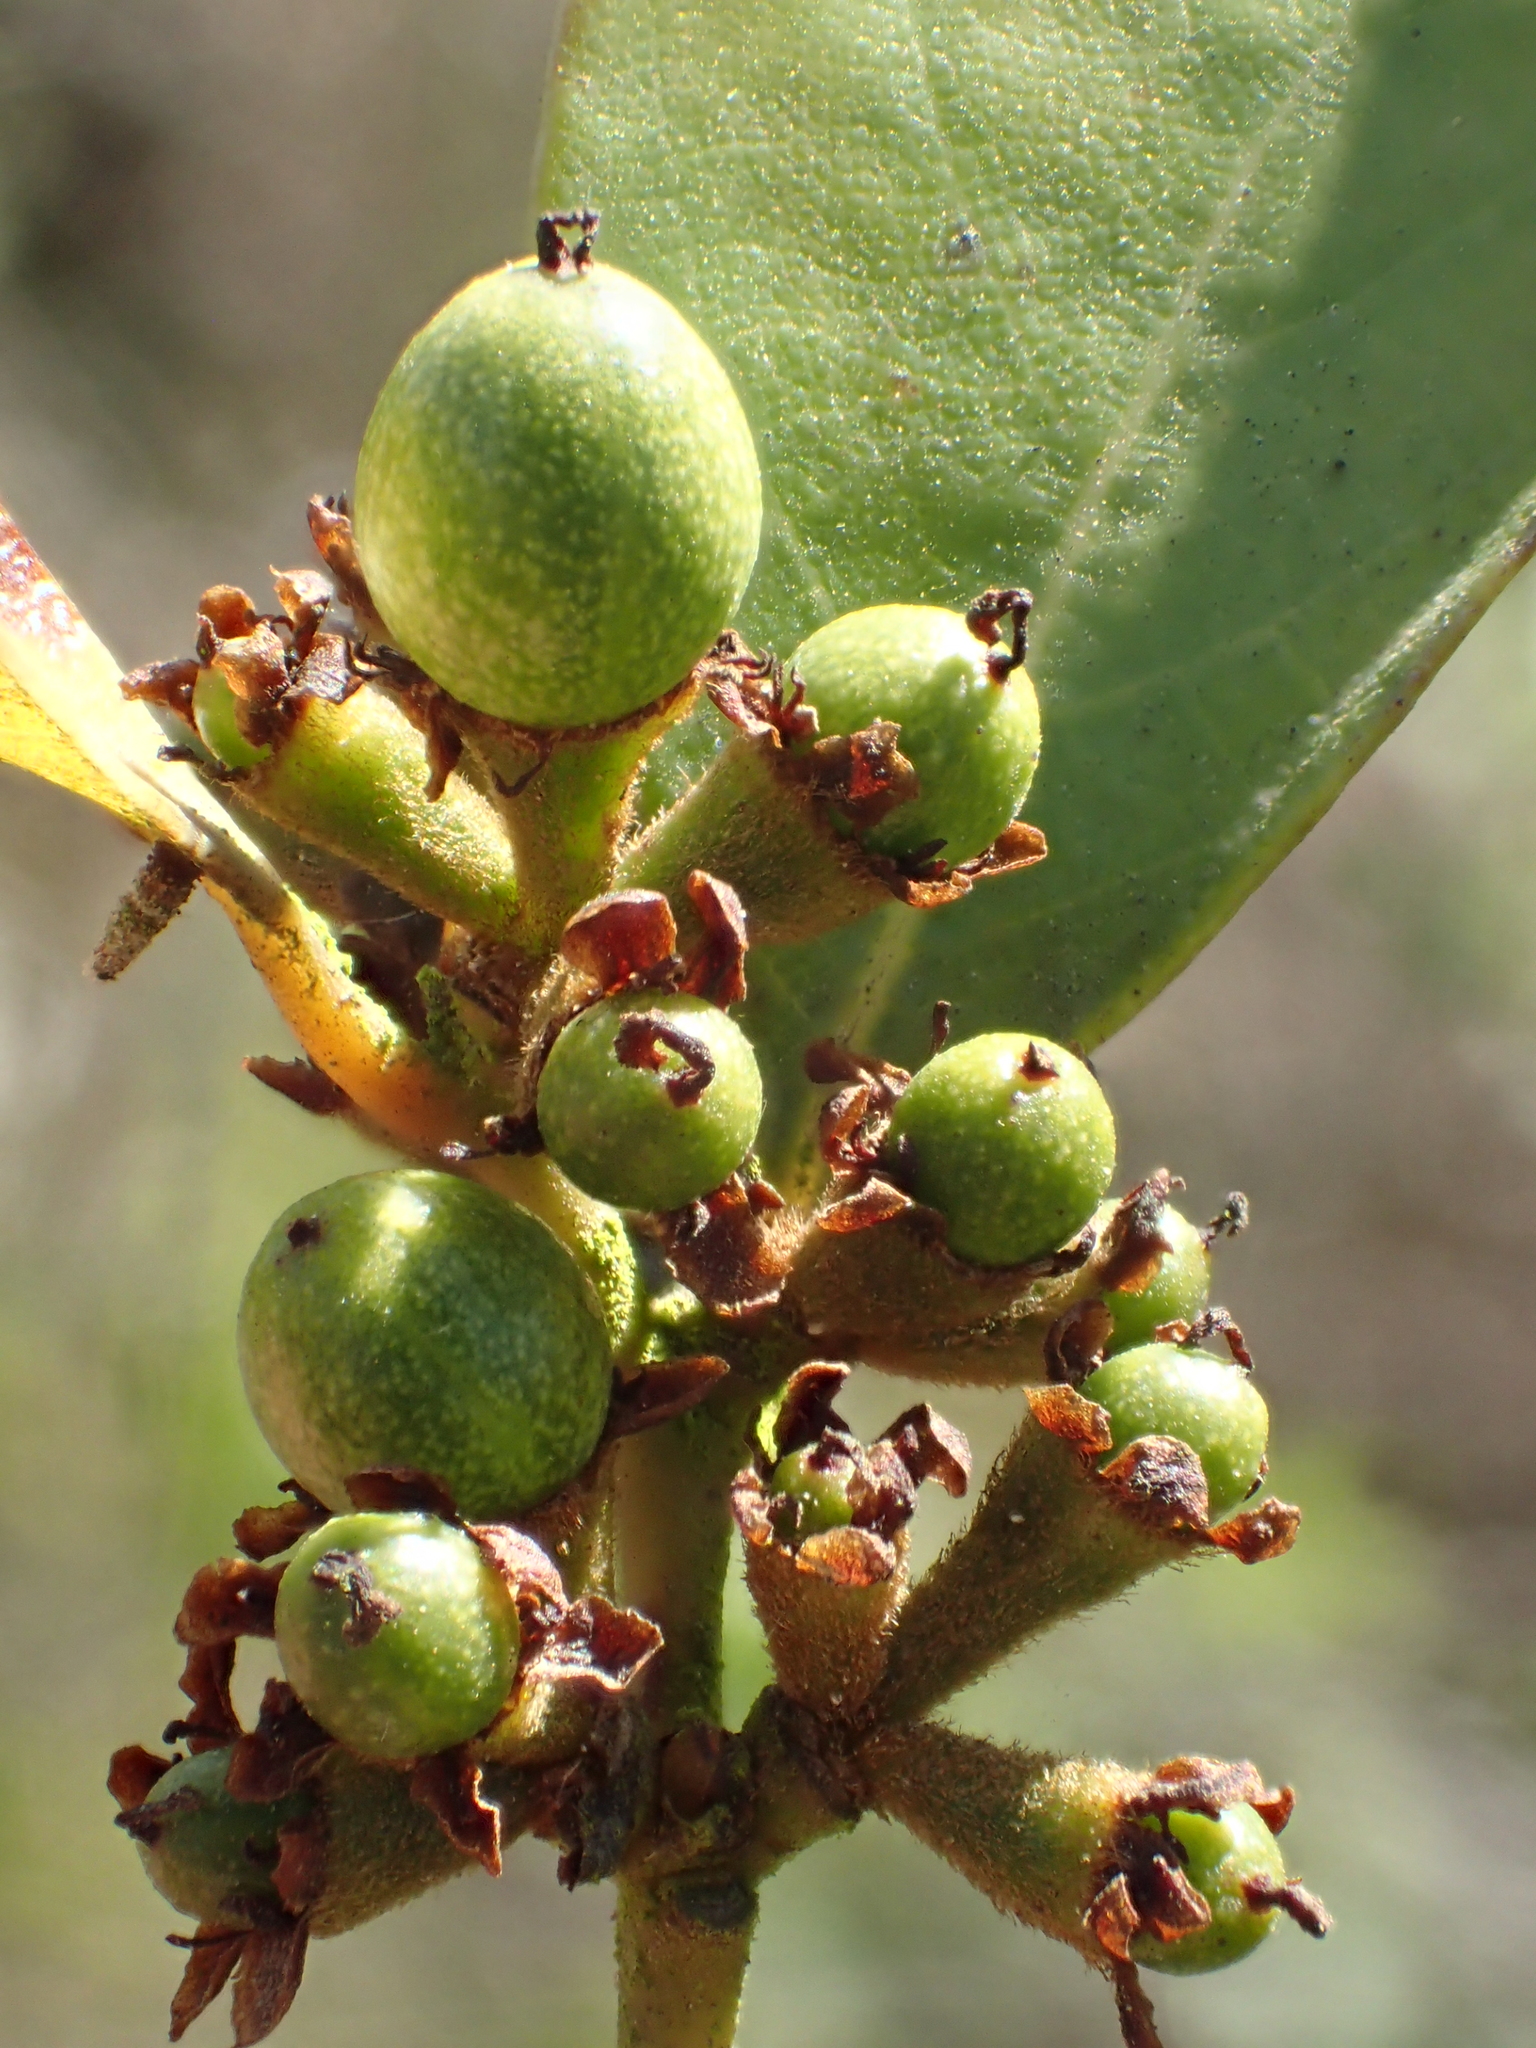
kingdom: Plantae
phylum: Tracheophyta
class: Magnoliopsida
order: Laurales
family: Lauraceae
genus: Lindera
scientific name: Lindera akoensis
